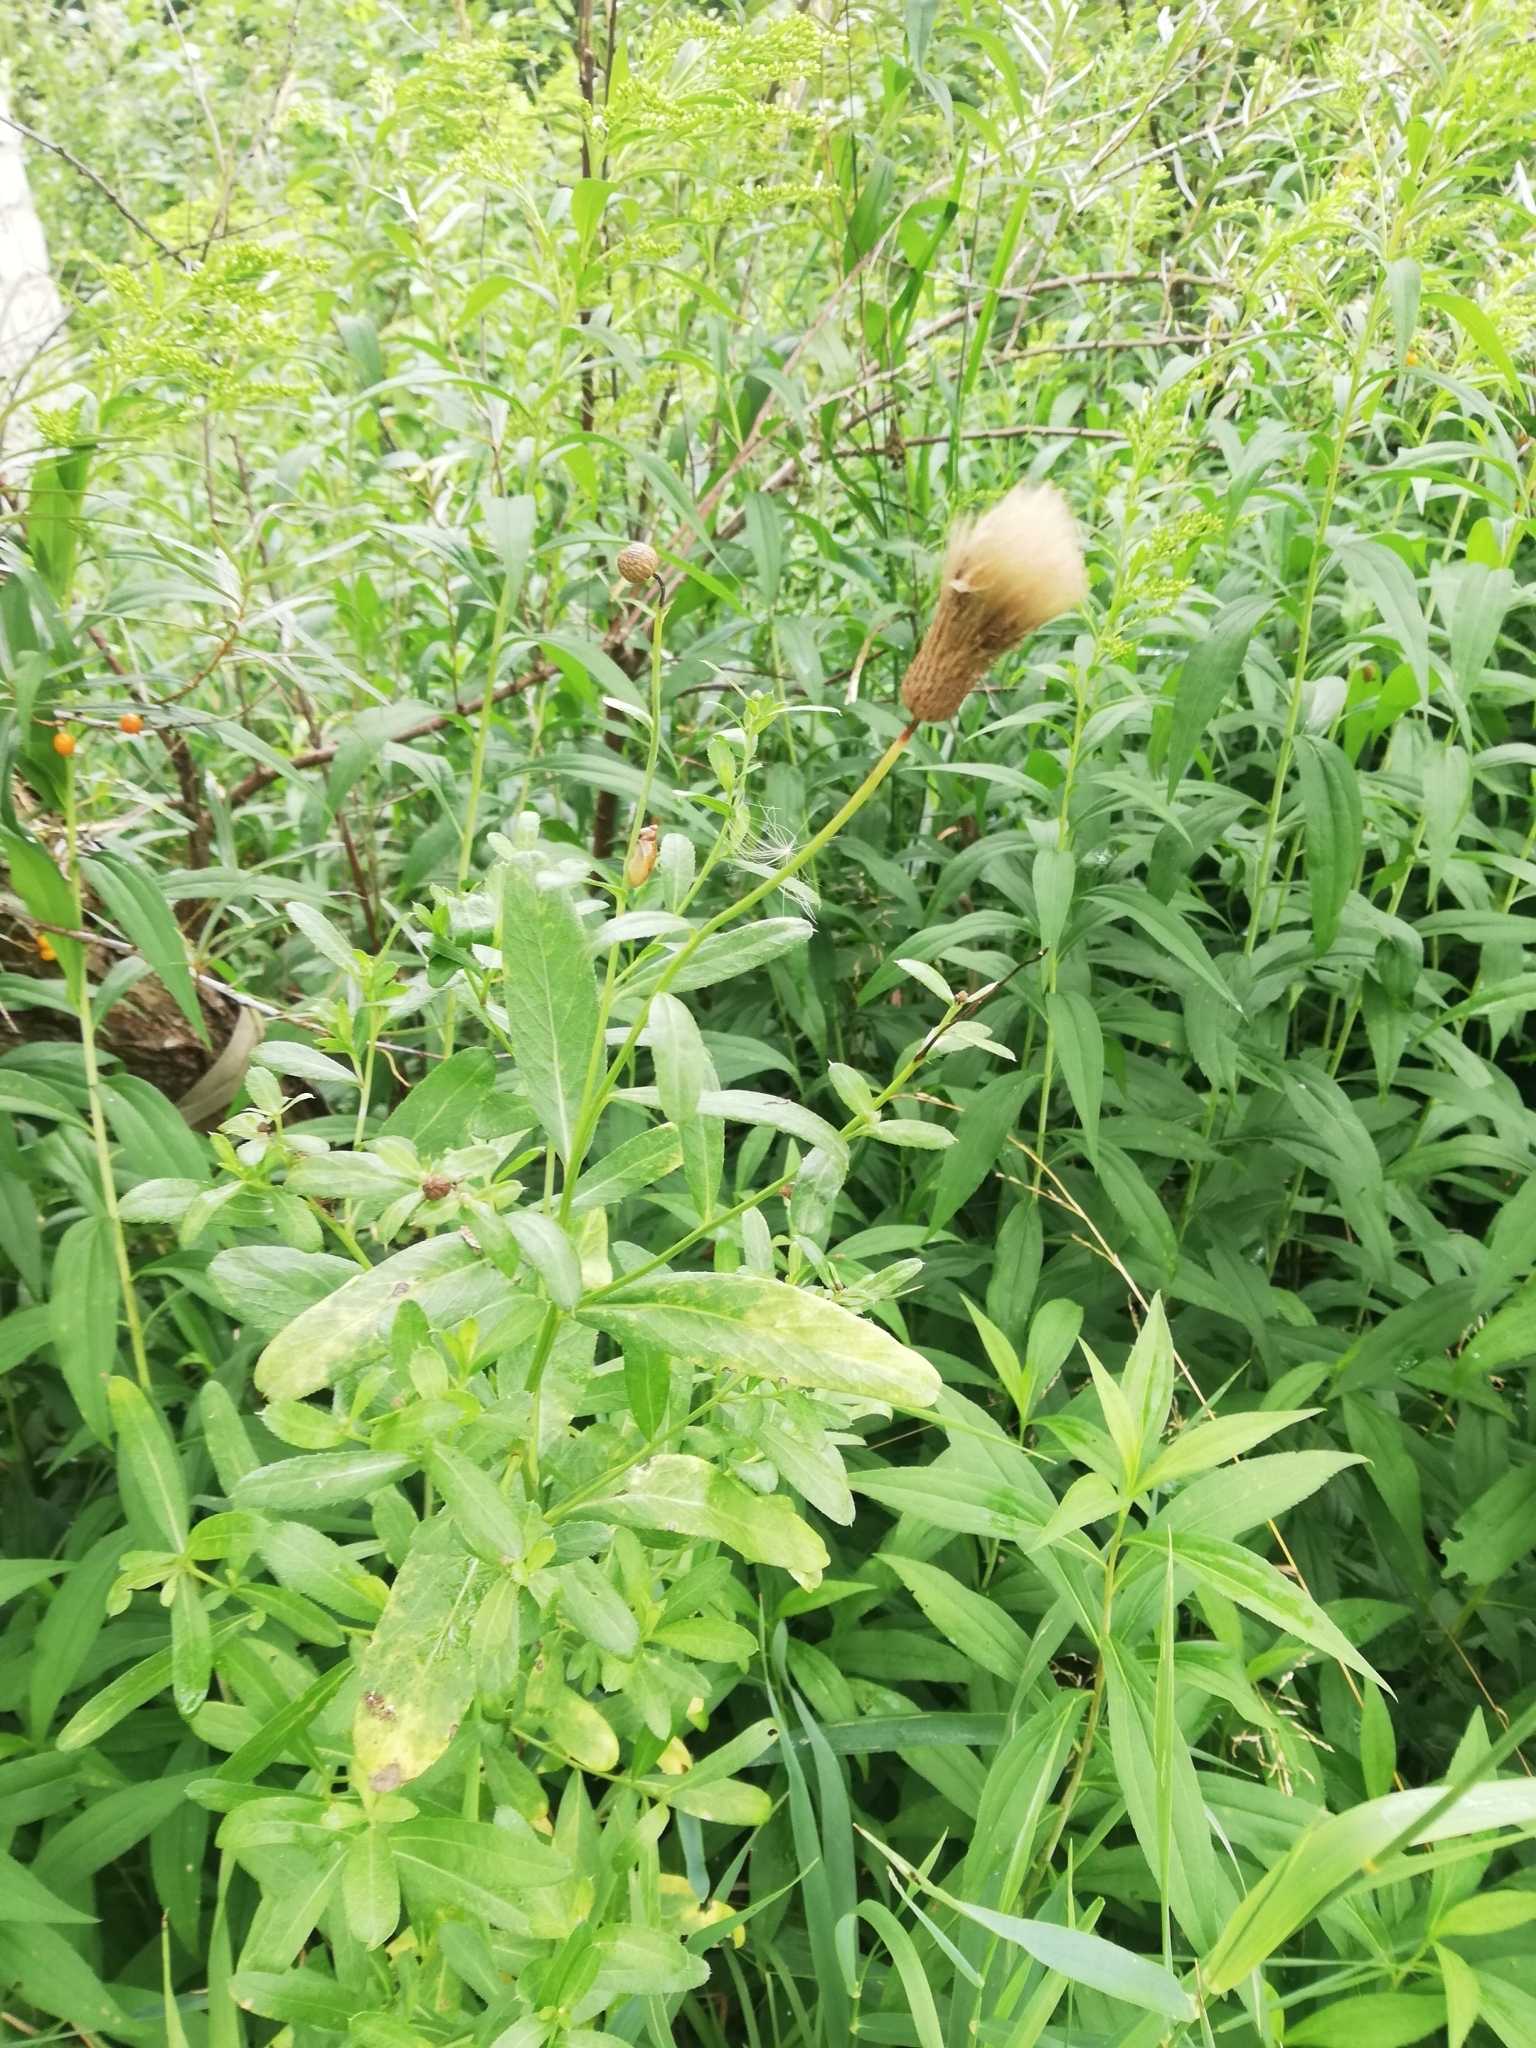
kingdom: Plantae
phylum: Tracheophyta
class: Magnoliopsida
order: Asterales
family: Asteraceae
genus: Cirsium
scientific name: Cirsium arvense
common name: Creeping thistle
